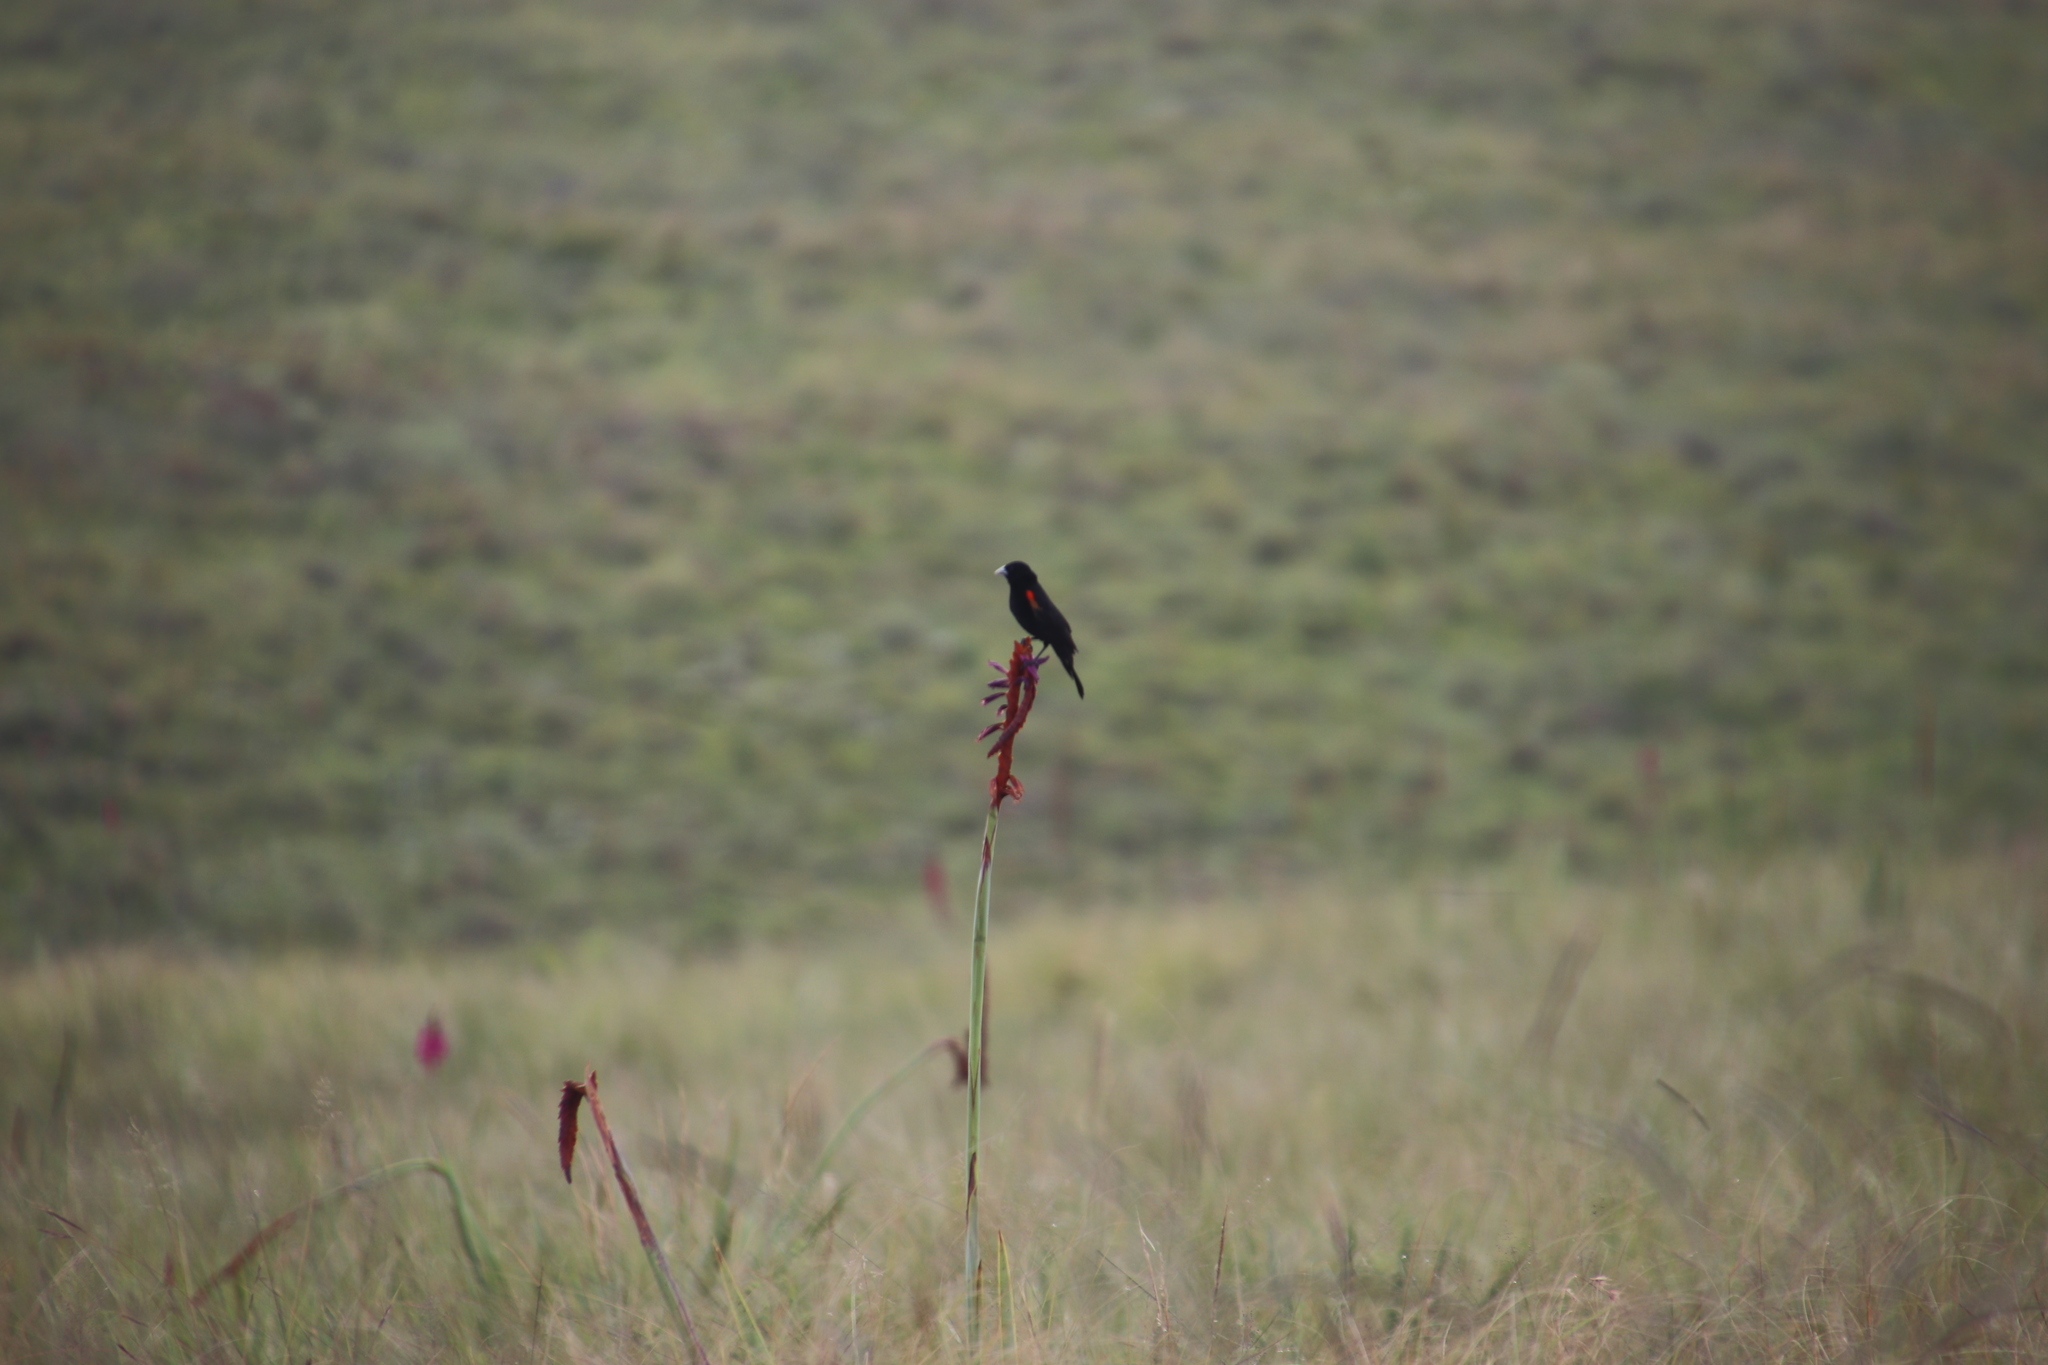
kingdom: Animalia
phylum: Chordata
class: Aves
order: Passeriformes
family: Ploceidae
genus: Euplectes
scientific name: Euplectes axillaris
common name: Fan-tailed widowbird
